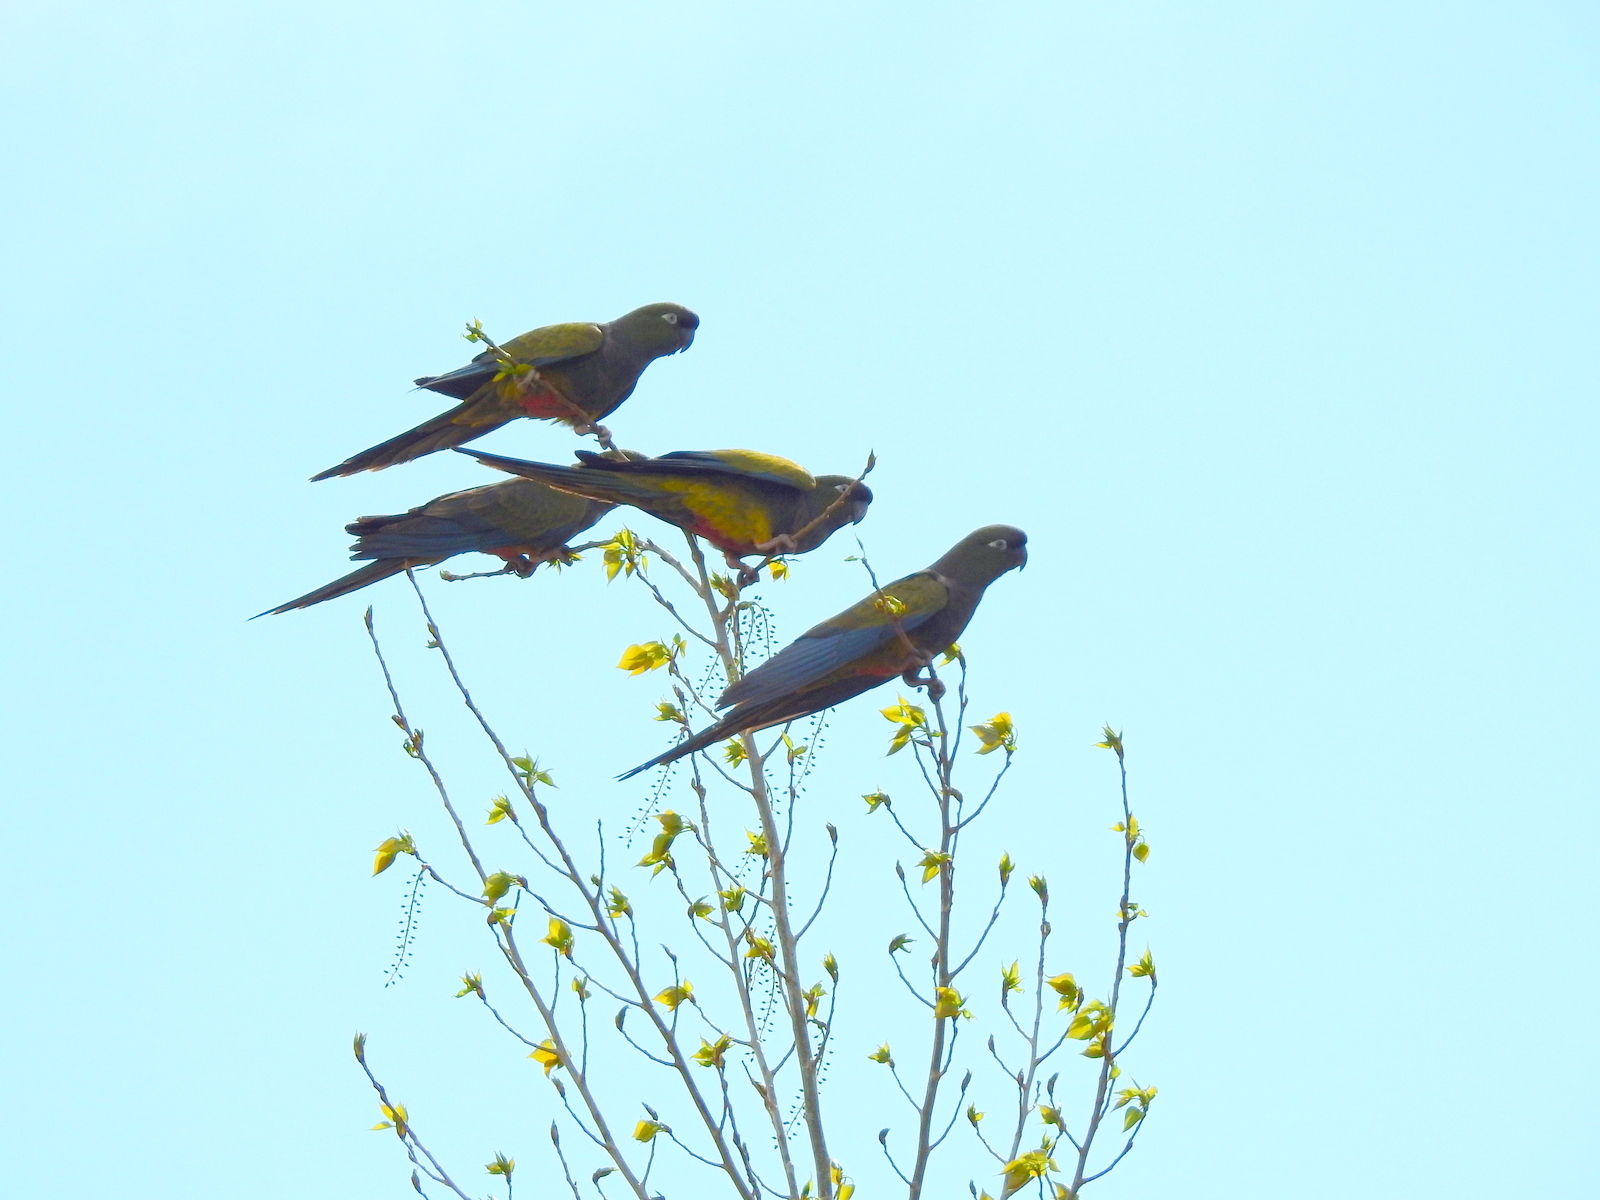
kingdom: Animalia
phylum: Chordata
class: Aves
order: Psittaciformes
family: Psittacidae
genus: Cyanoliseus
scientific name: Cyanoliseus patagonus
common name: Burrowing parrot
